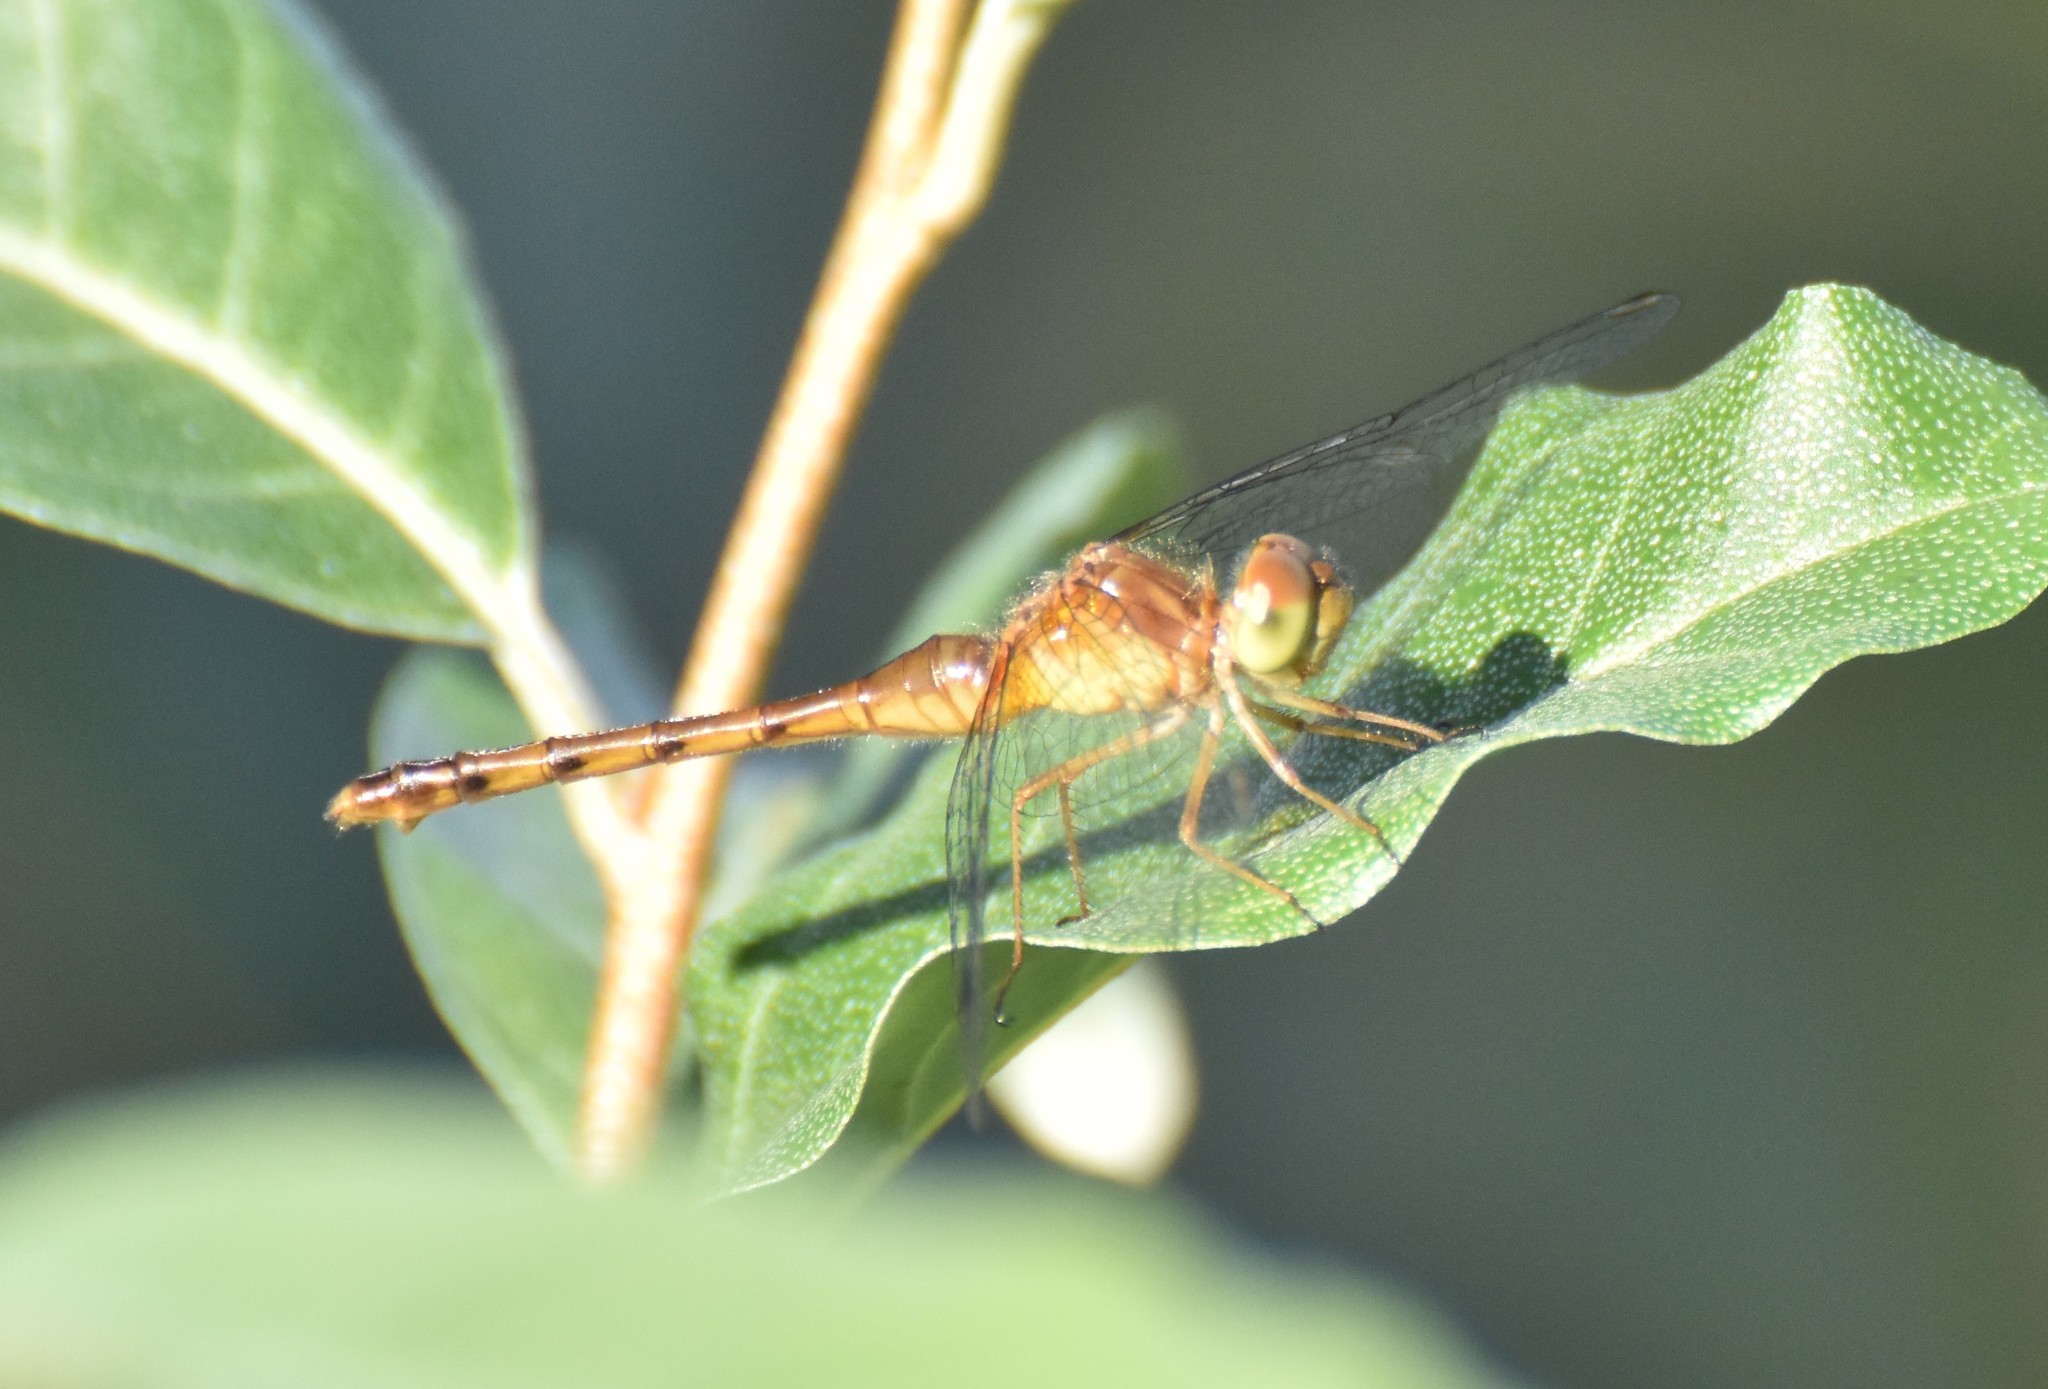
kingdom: Animalia
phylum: Arthropoda
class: Insecta
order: Odonata
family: Libellulidae
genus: Sympetrum
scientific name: Sympetrum vicinum
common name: Autumn meadowhawk
